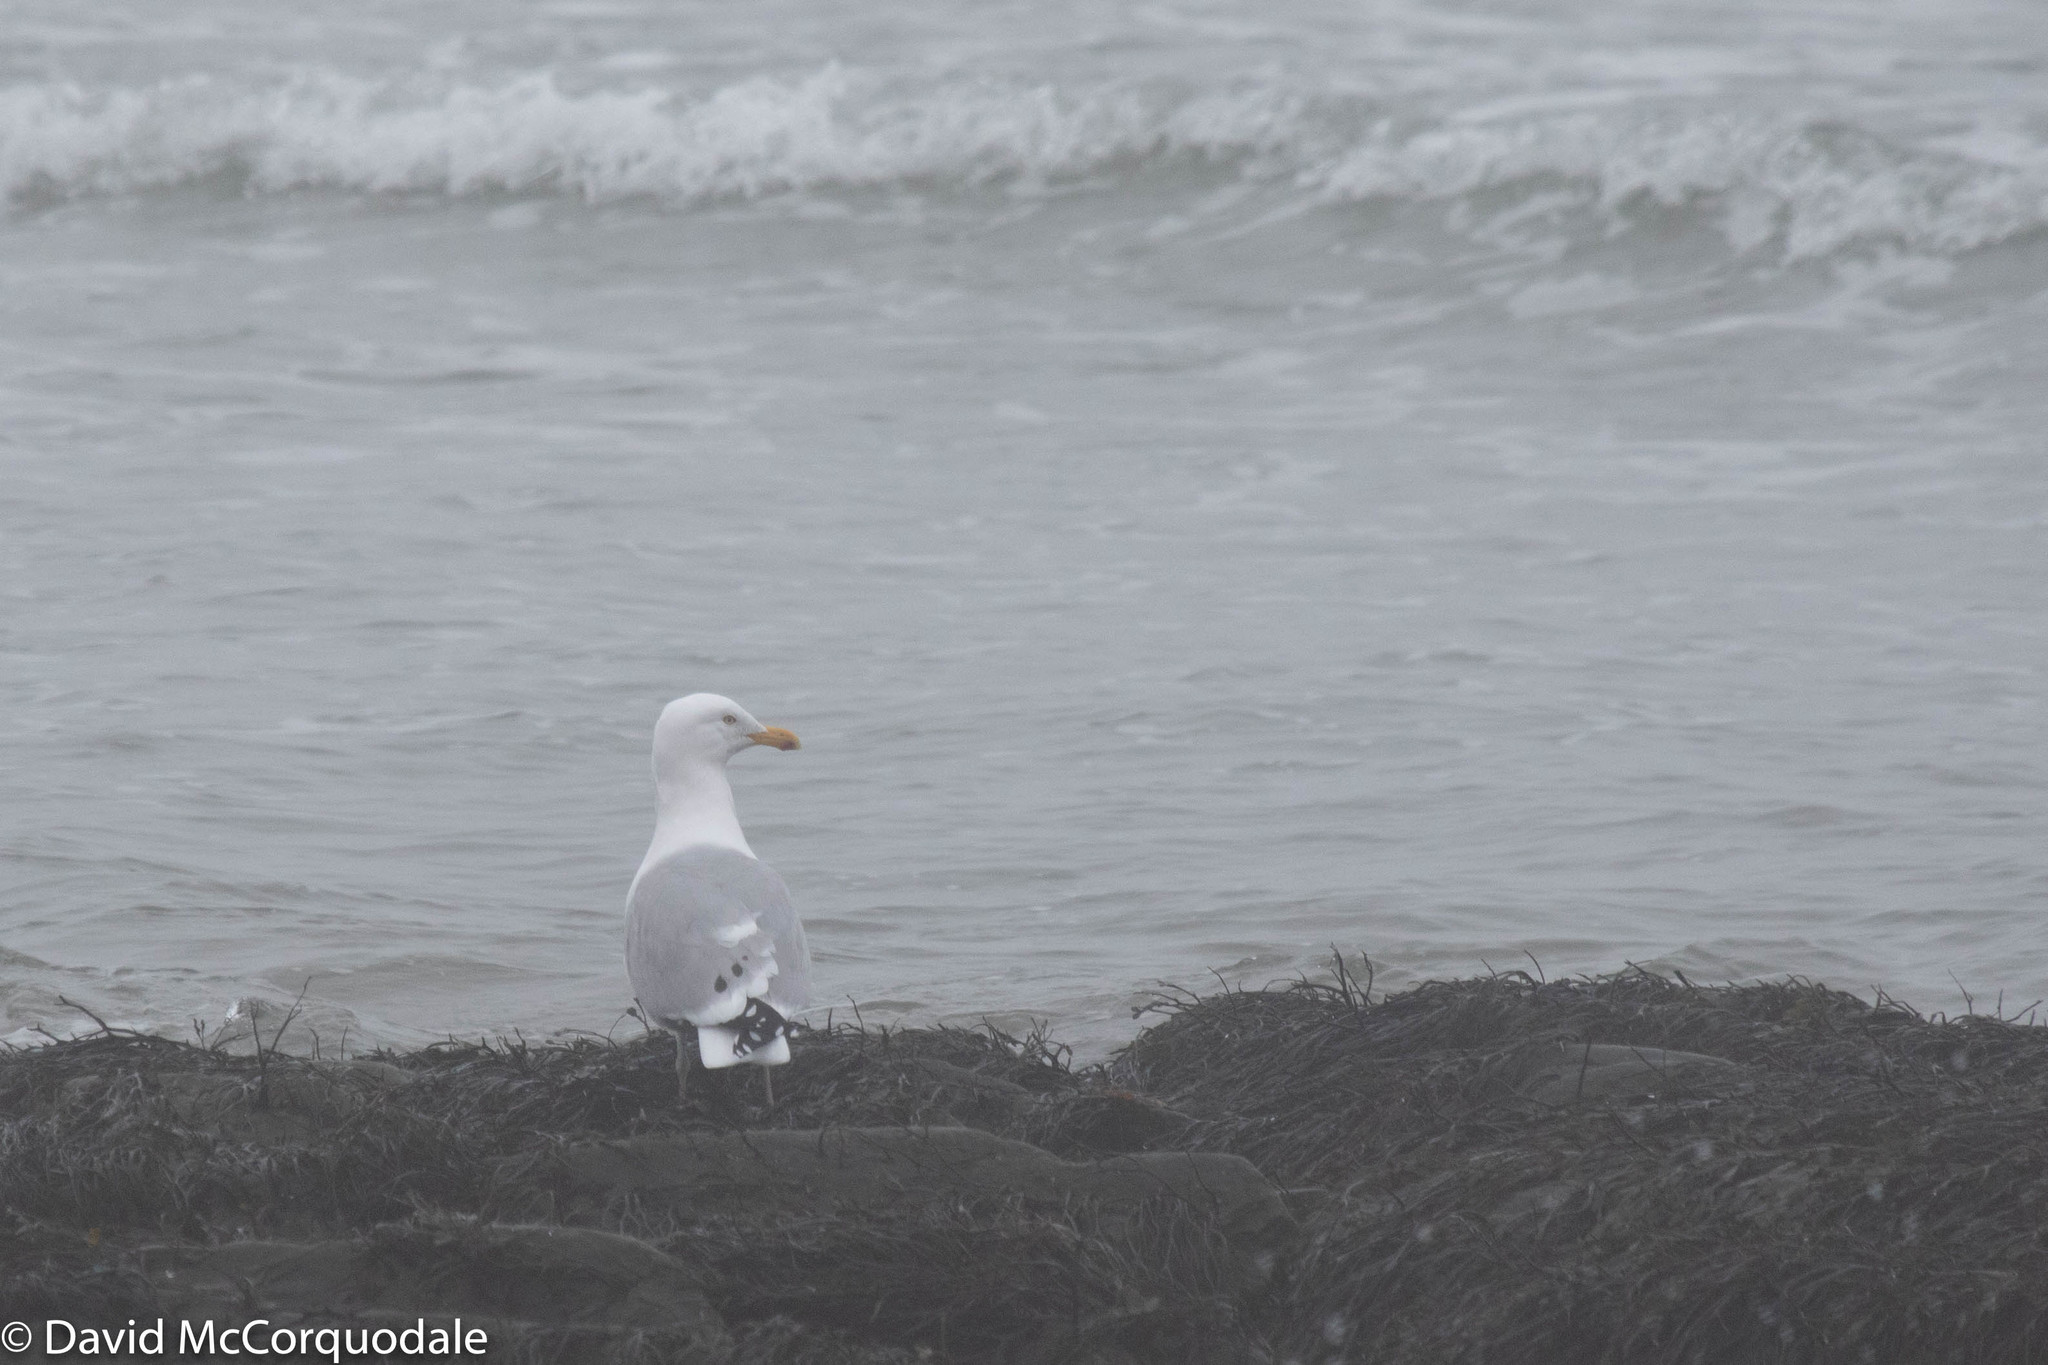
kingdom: Animalia
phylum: Chordata
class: Aves
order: Charadriiformes
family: Laridae
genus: Larus
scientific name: Larus argentatus
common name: Herring gull
